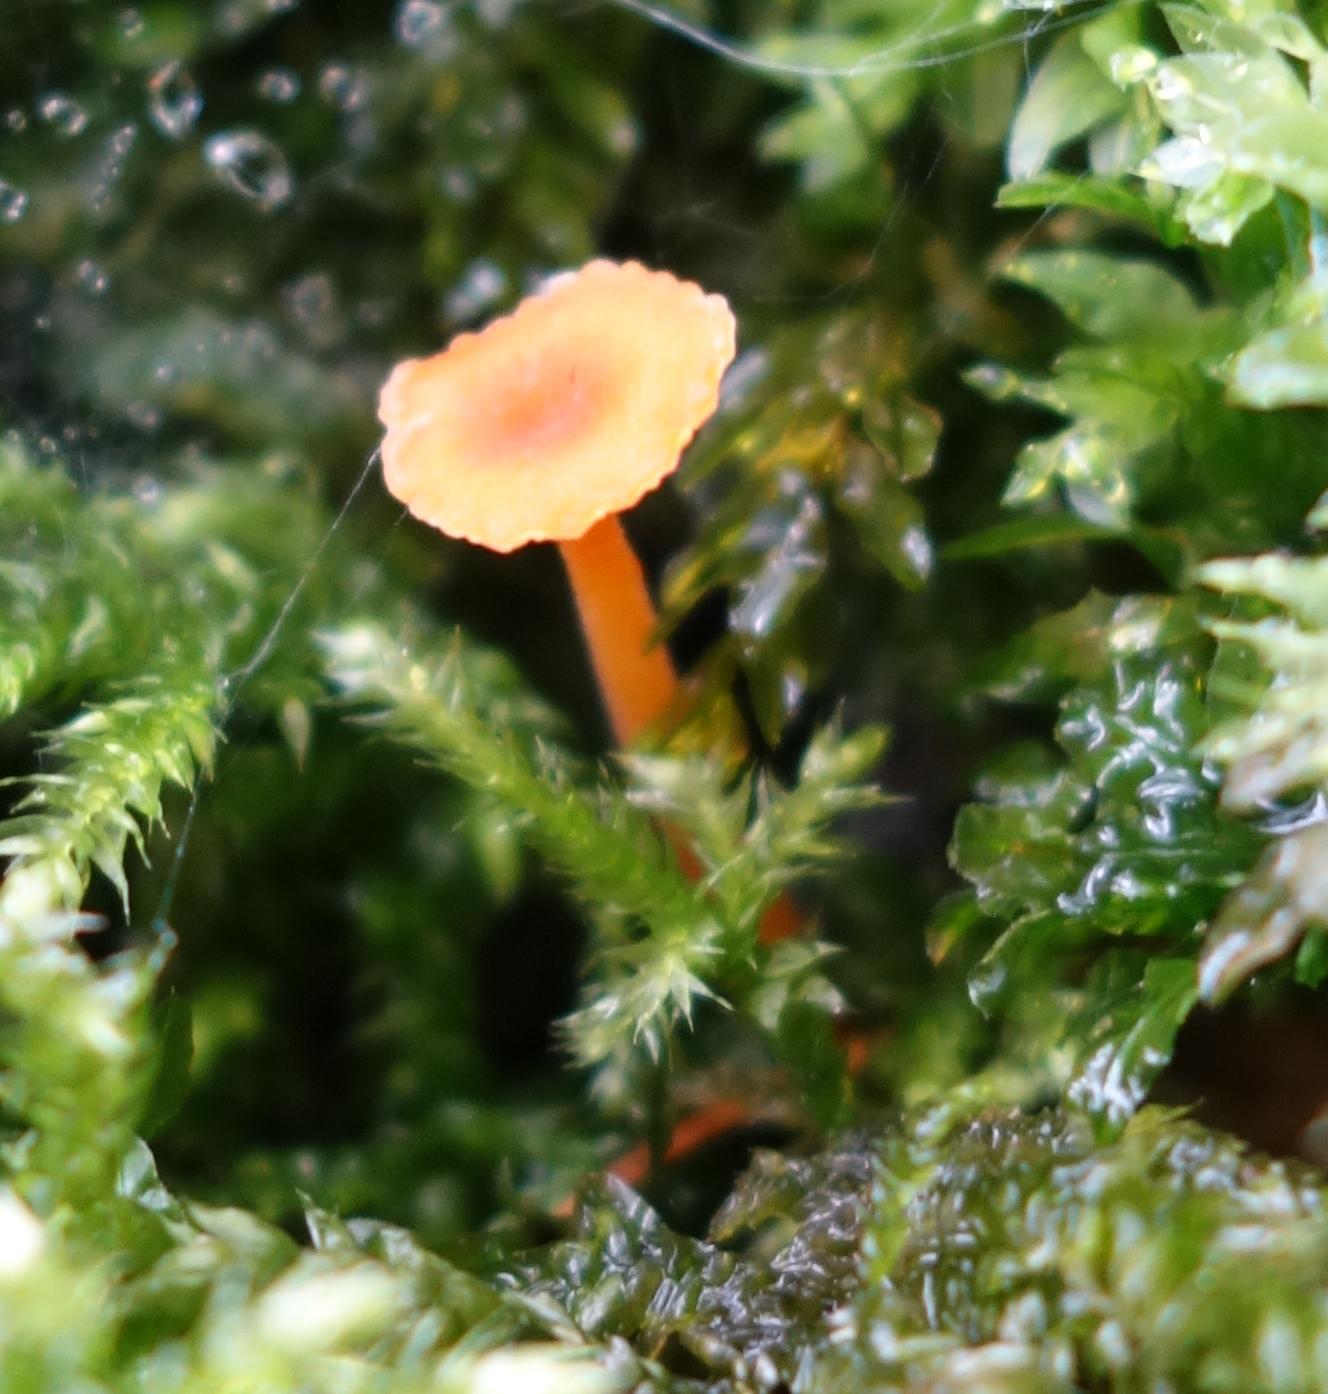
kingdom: Fungi
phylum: Basidiomycota
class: Agaricomycetes
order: Hymenochaetales
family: Rickenellaceae
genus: Rickenella
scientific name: Rickenella fibula
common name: Orange mosscap
